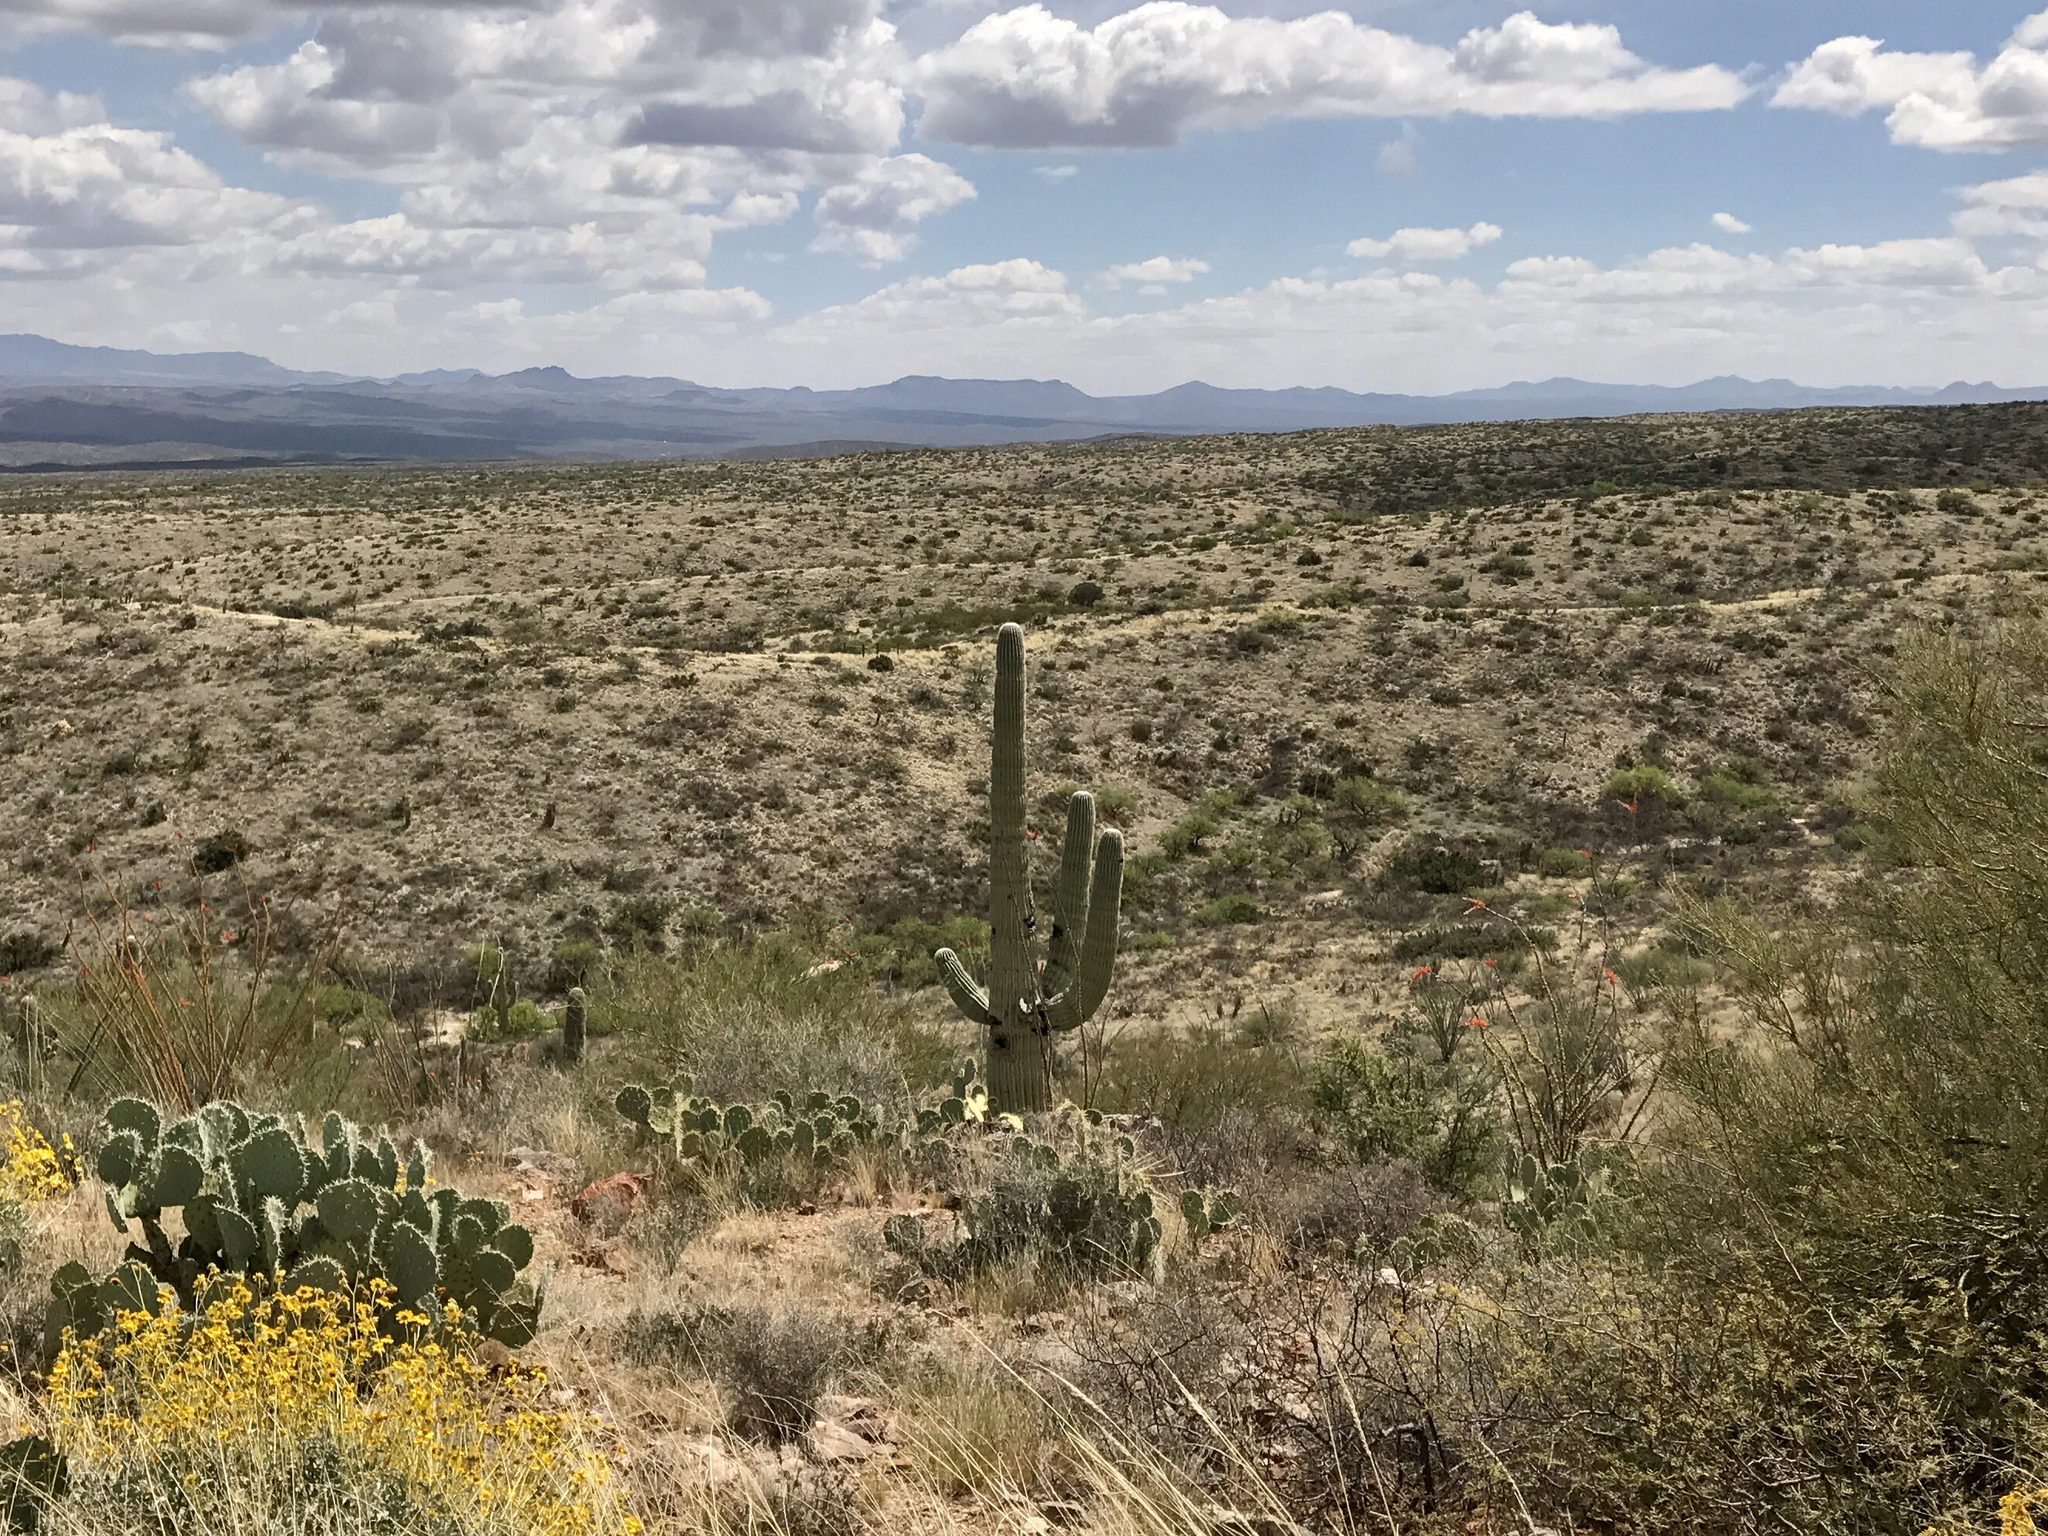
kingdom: Plantae
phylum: Tracheophyta
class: Magnoliopsida
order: Caryophyllales
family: Cactaceae
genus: Carnegiea
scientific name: Carnegiea gigantea
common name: Saguaro
